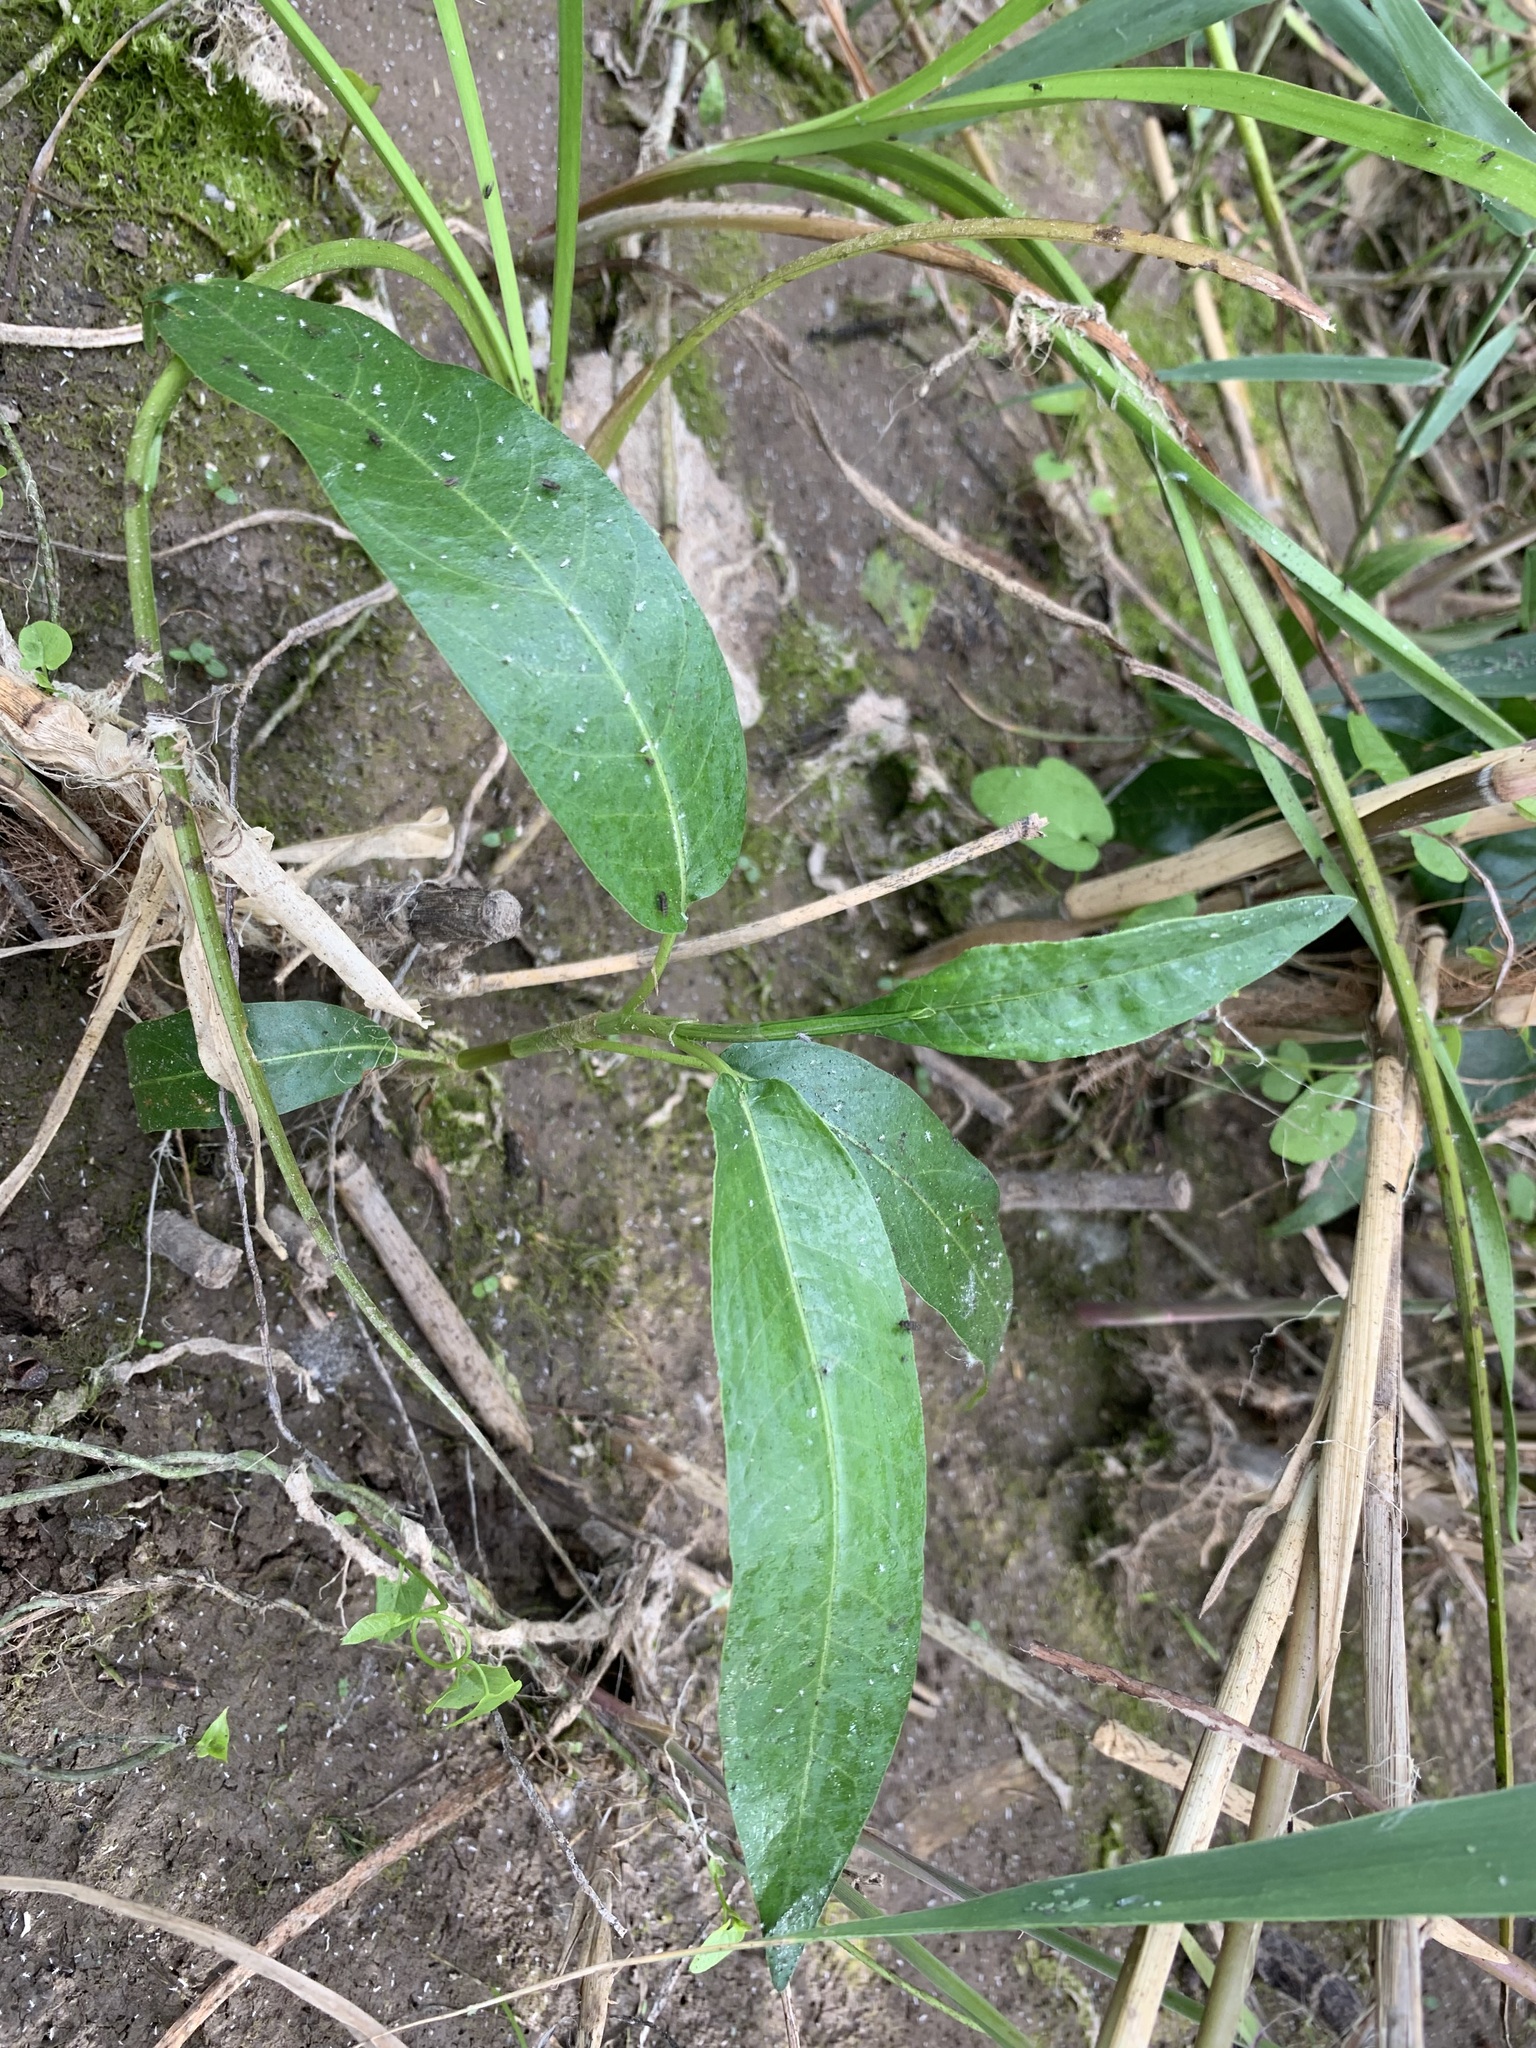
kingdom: Plantae
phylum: Tracheophyta
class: Magnoliopsida
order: Caryophyllales
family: Polygonaceae
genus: Persicaria
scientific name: Persicaria amphibia
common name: Amphibious bistort
